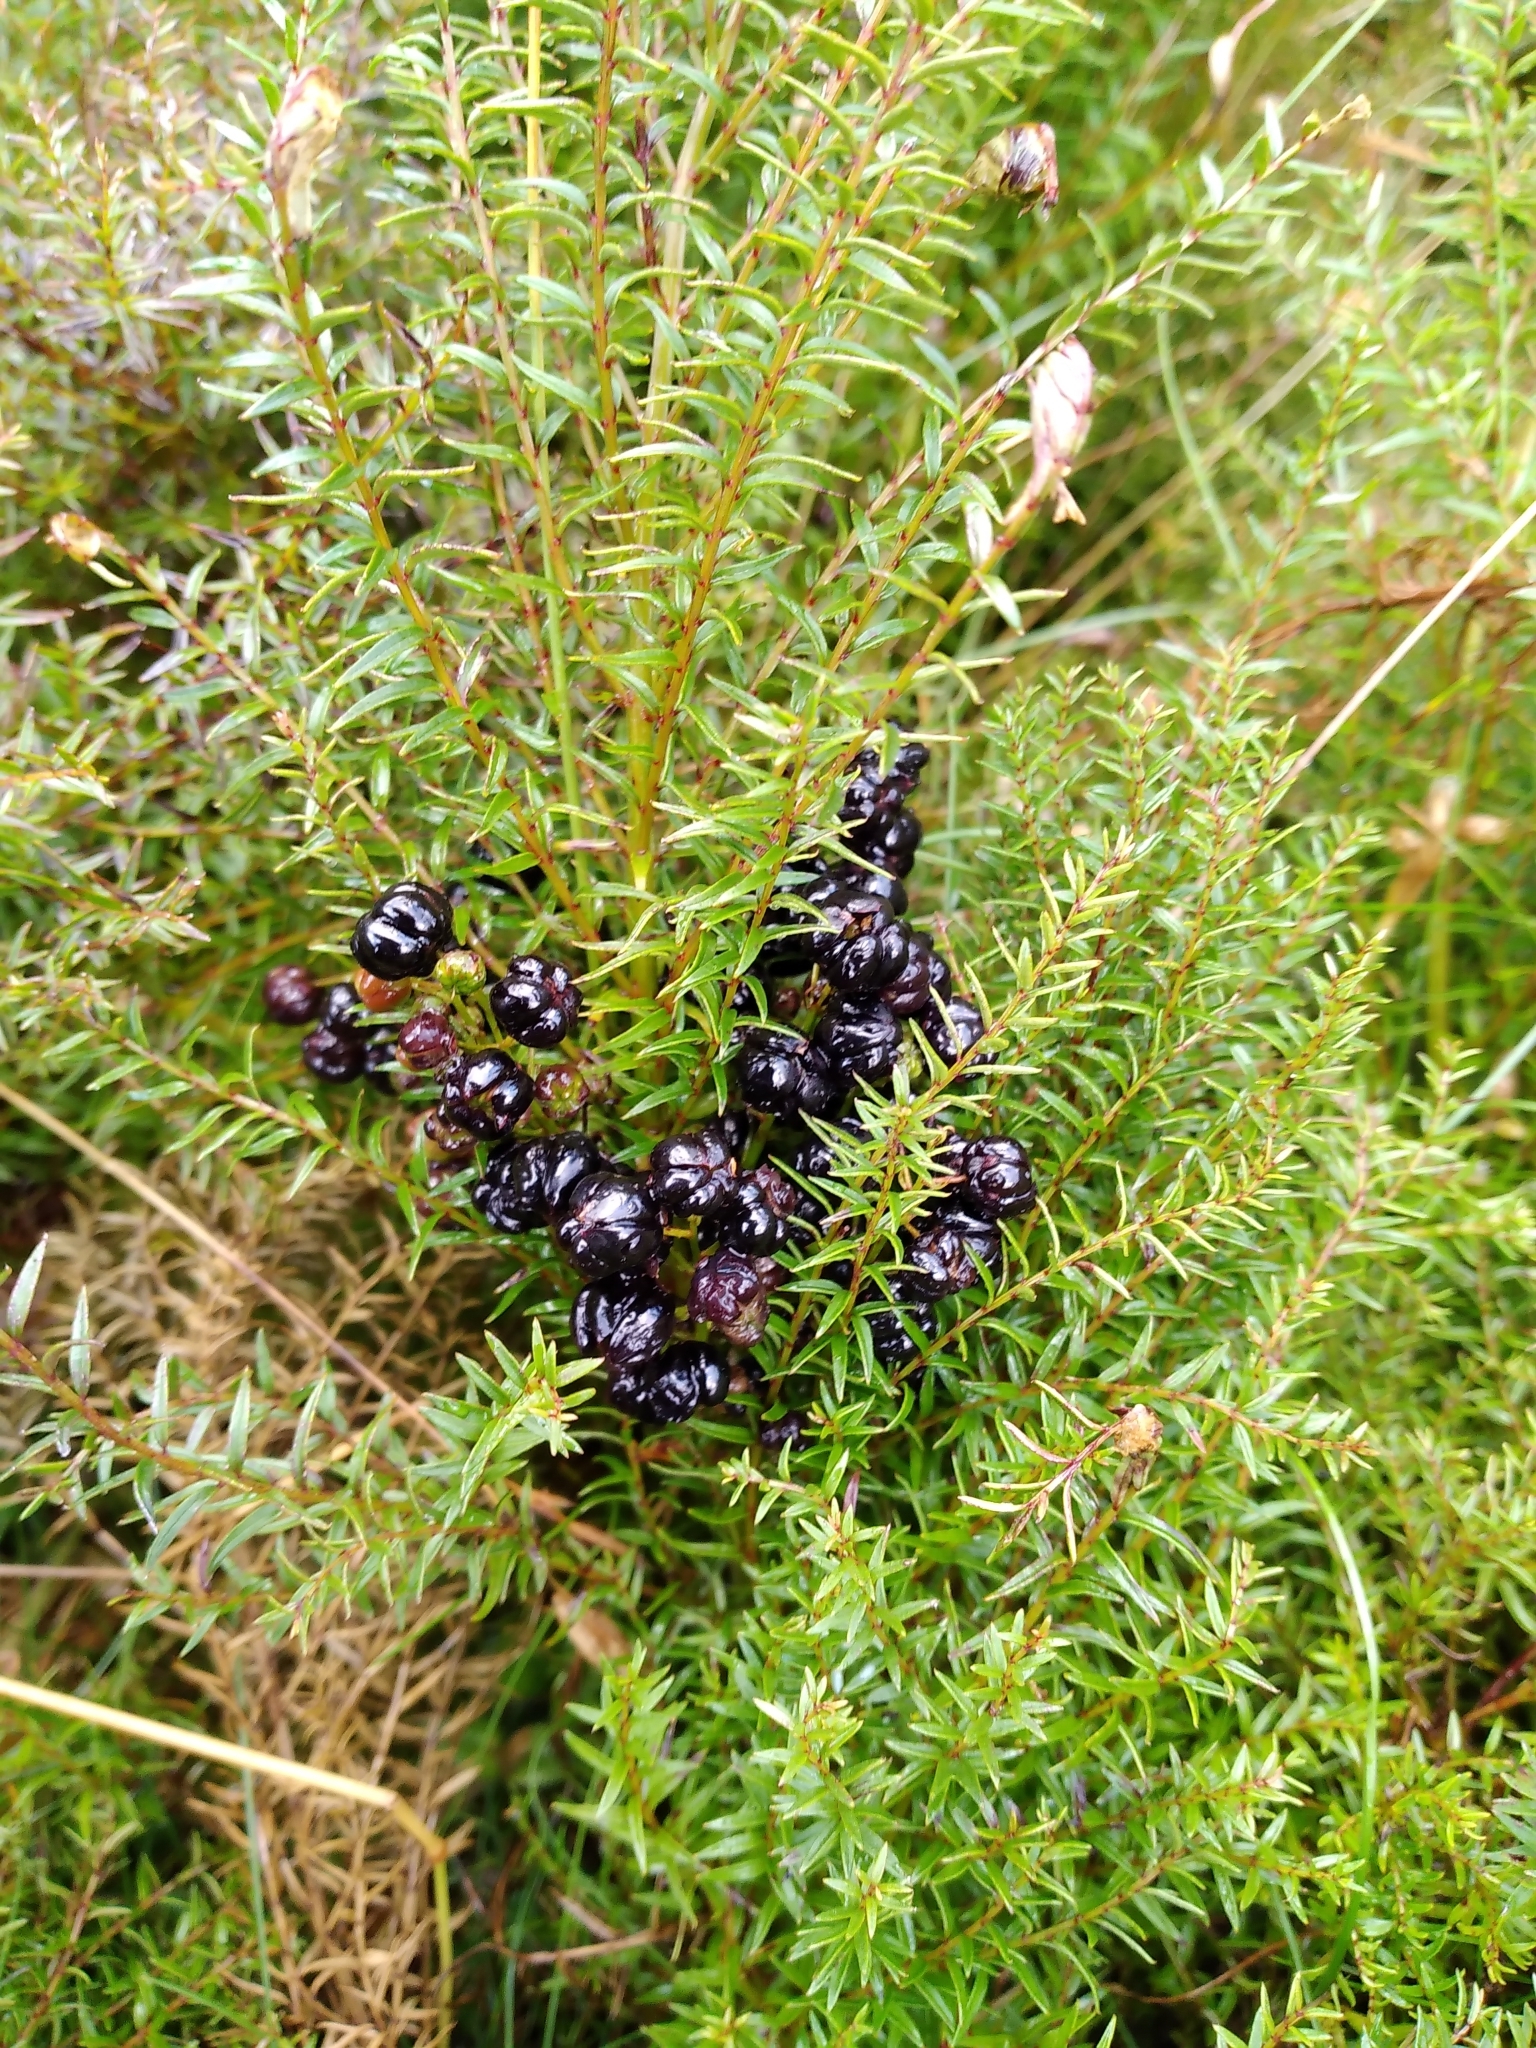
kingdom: Plantae
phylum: Tracheophyta
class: Magnoliopsida
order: Cucurbitales
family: Coriariaceae
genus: Coriaria
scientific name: Coriaria angustissima
